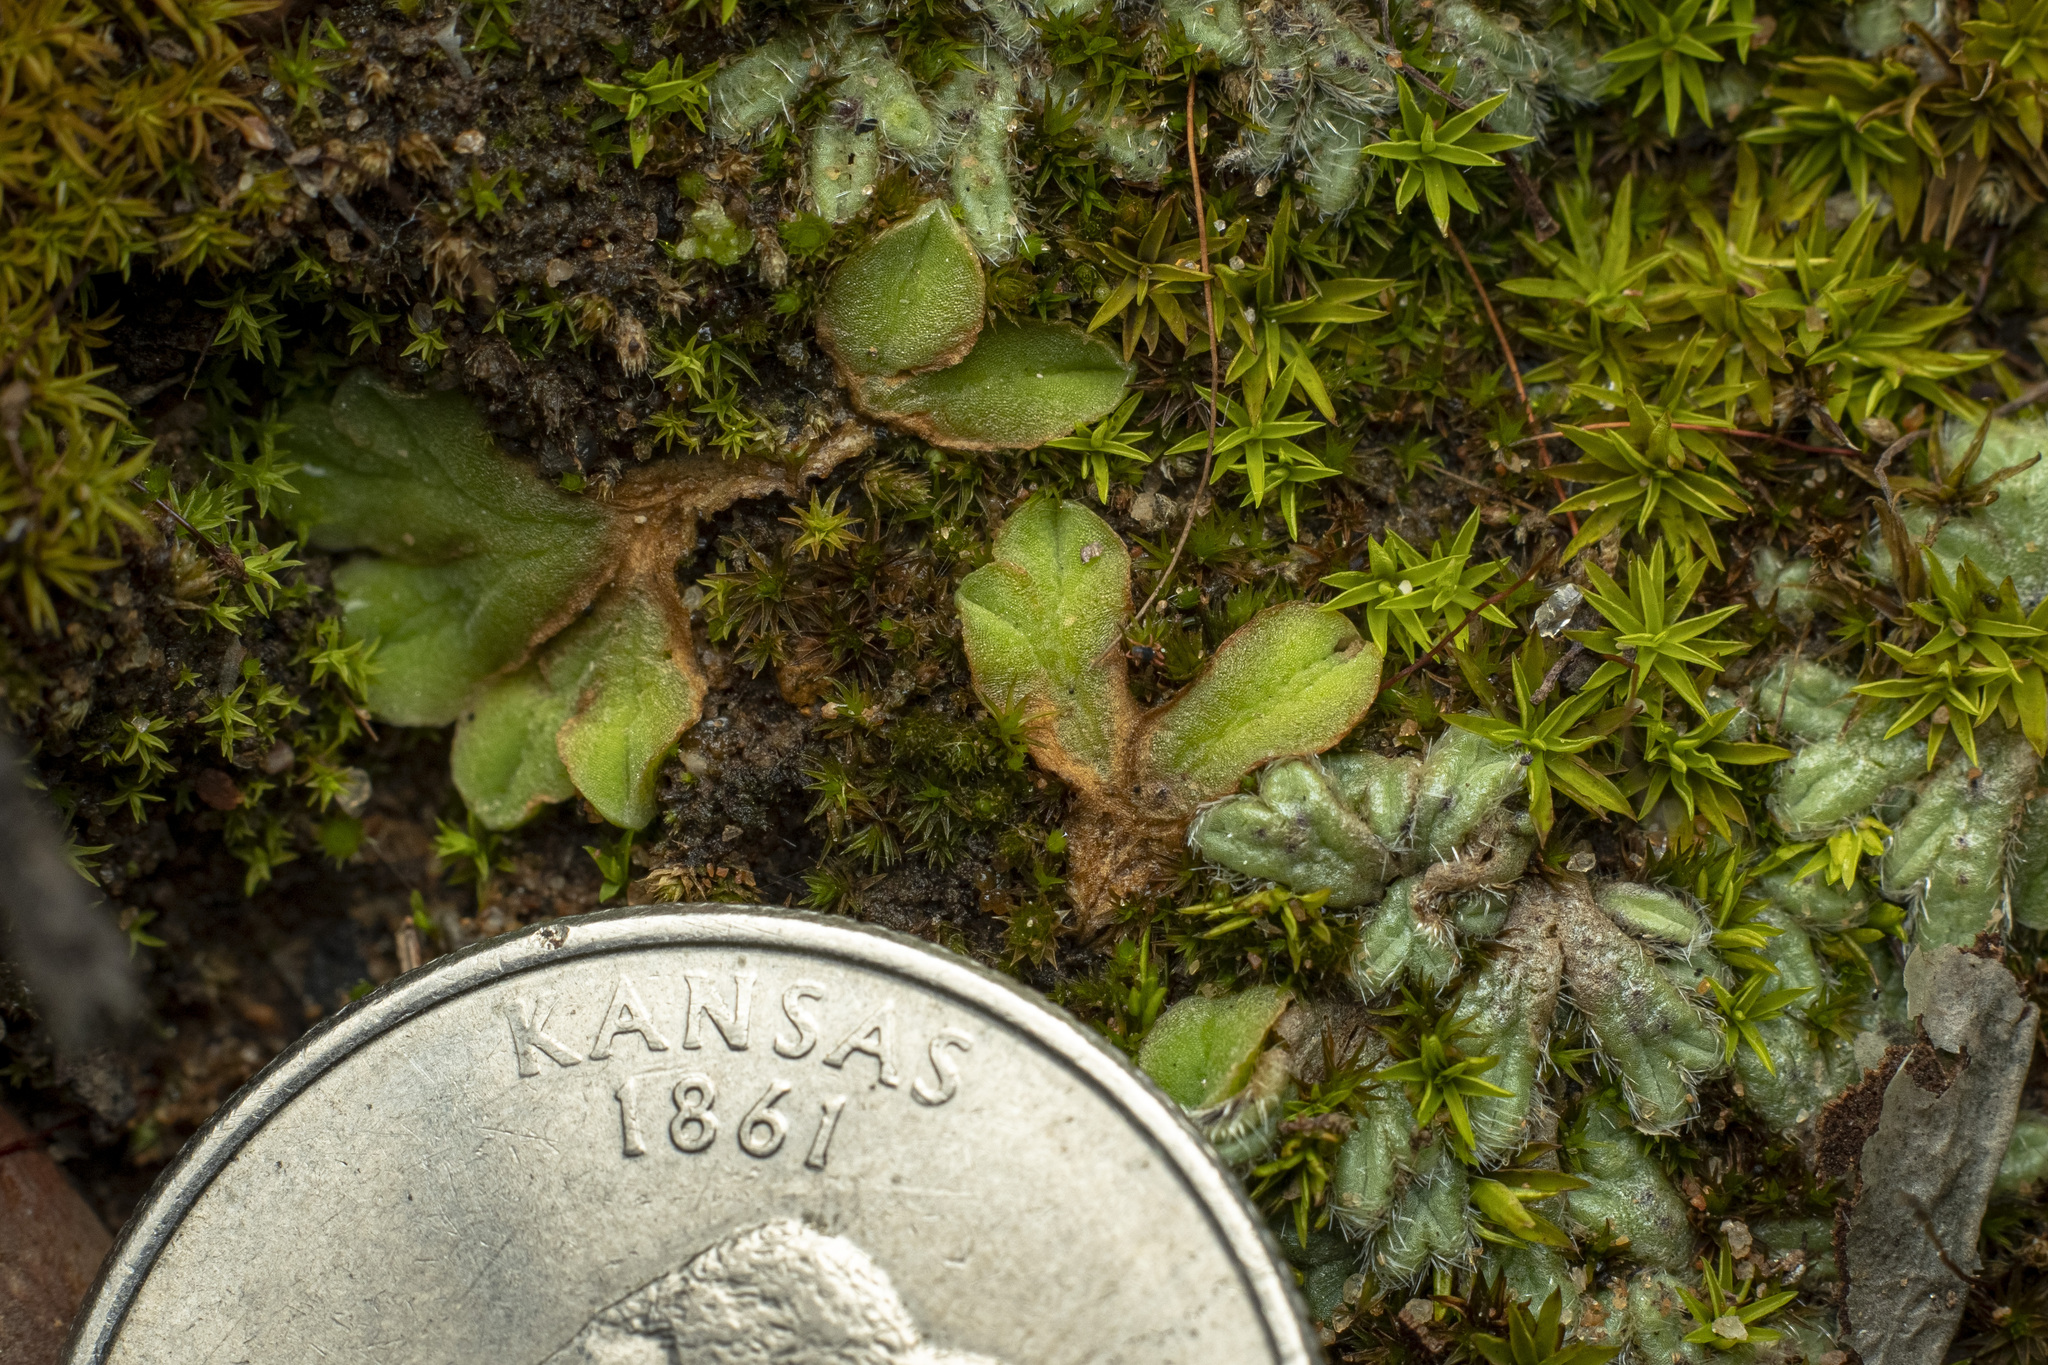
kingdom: Plantae
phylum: Marchantiophyta
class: Marchantiopsida
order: Marchantiales
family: Ricciaceae
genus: Riccia
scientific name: Riccia campbelliana
